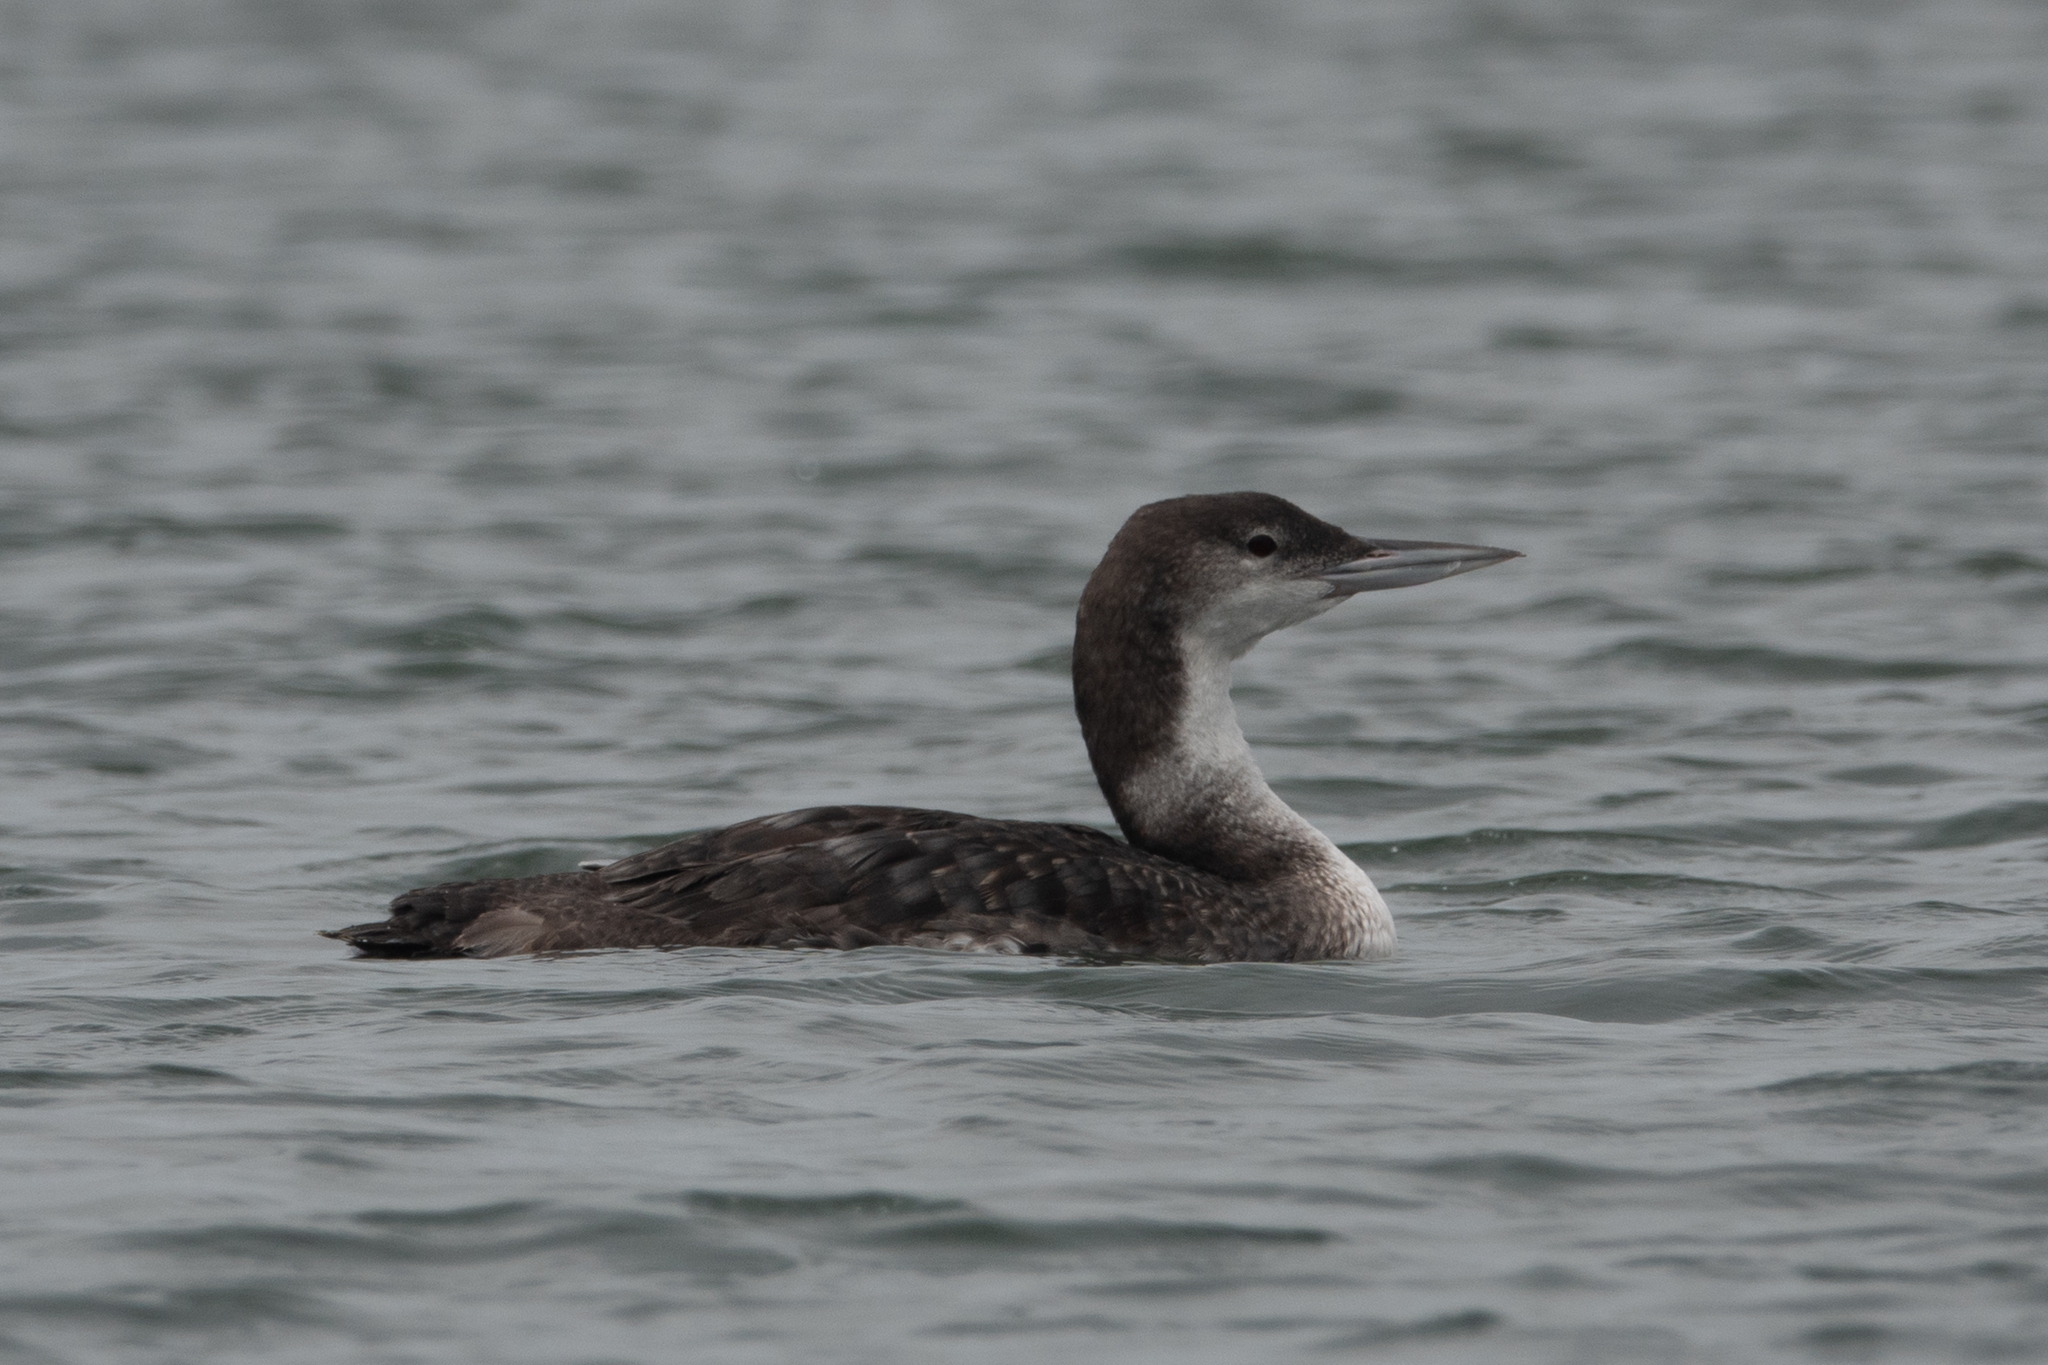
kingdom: Animalia
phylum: Chordata
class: Aves
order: Gaviiformes
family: Gaviidae
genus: Gavia
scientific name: Gavia immer
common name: Common loon
